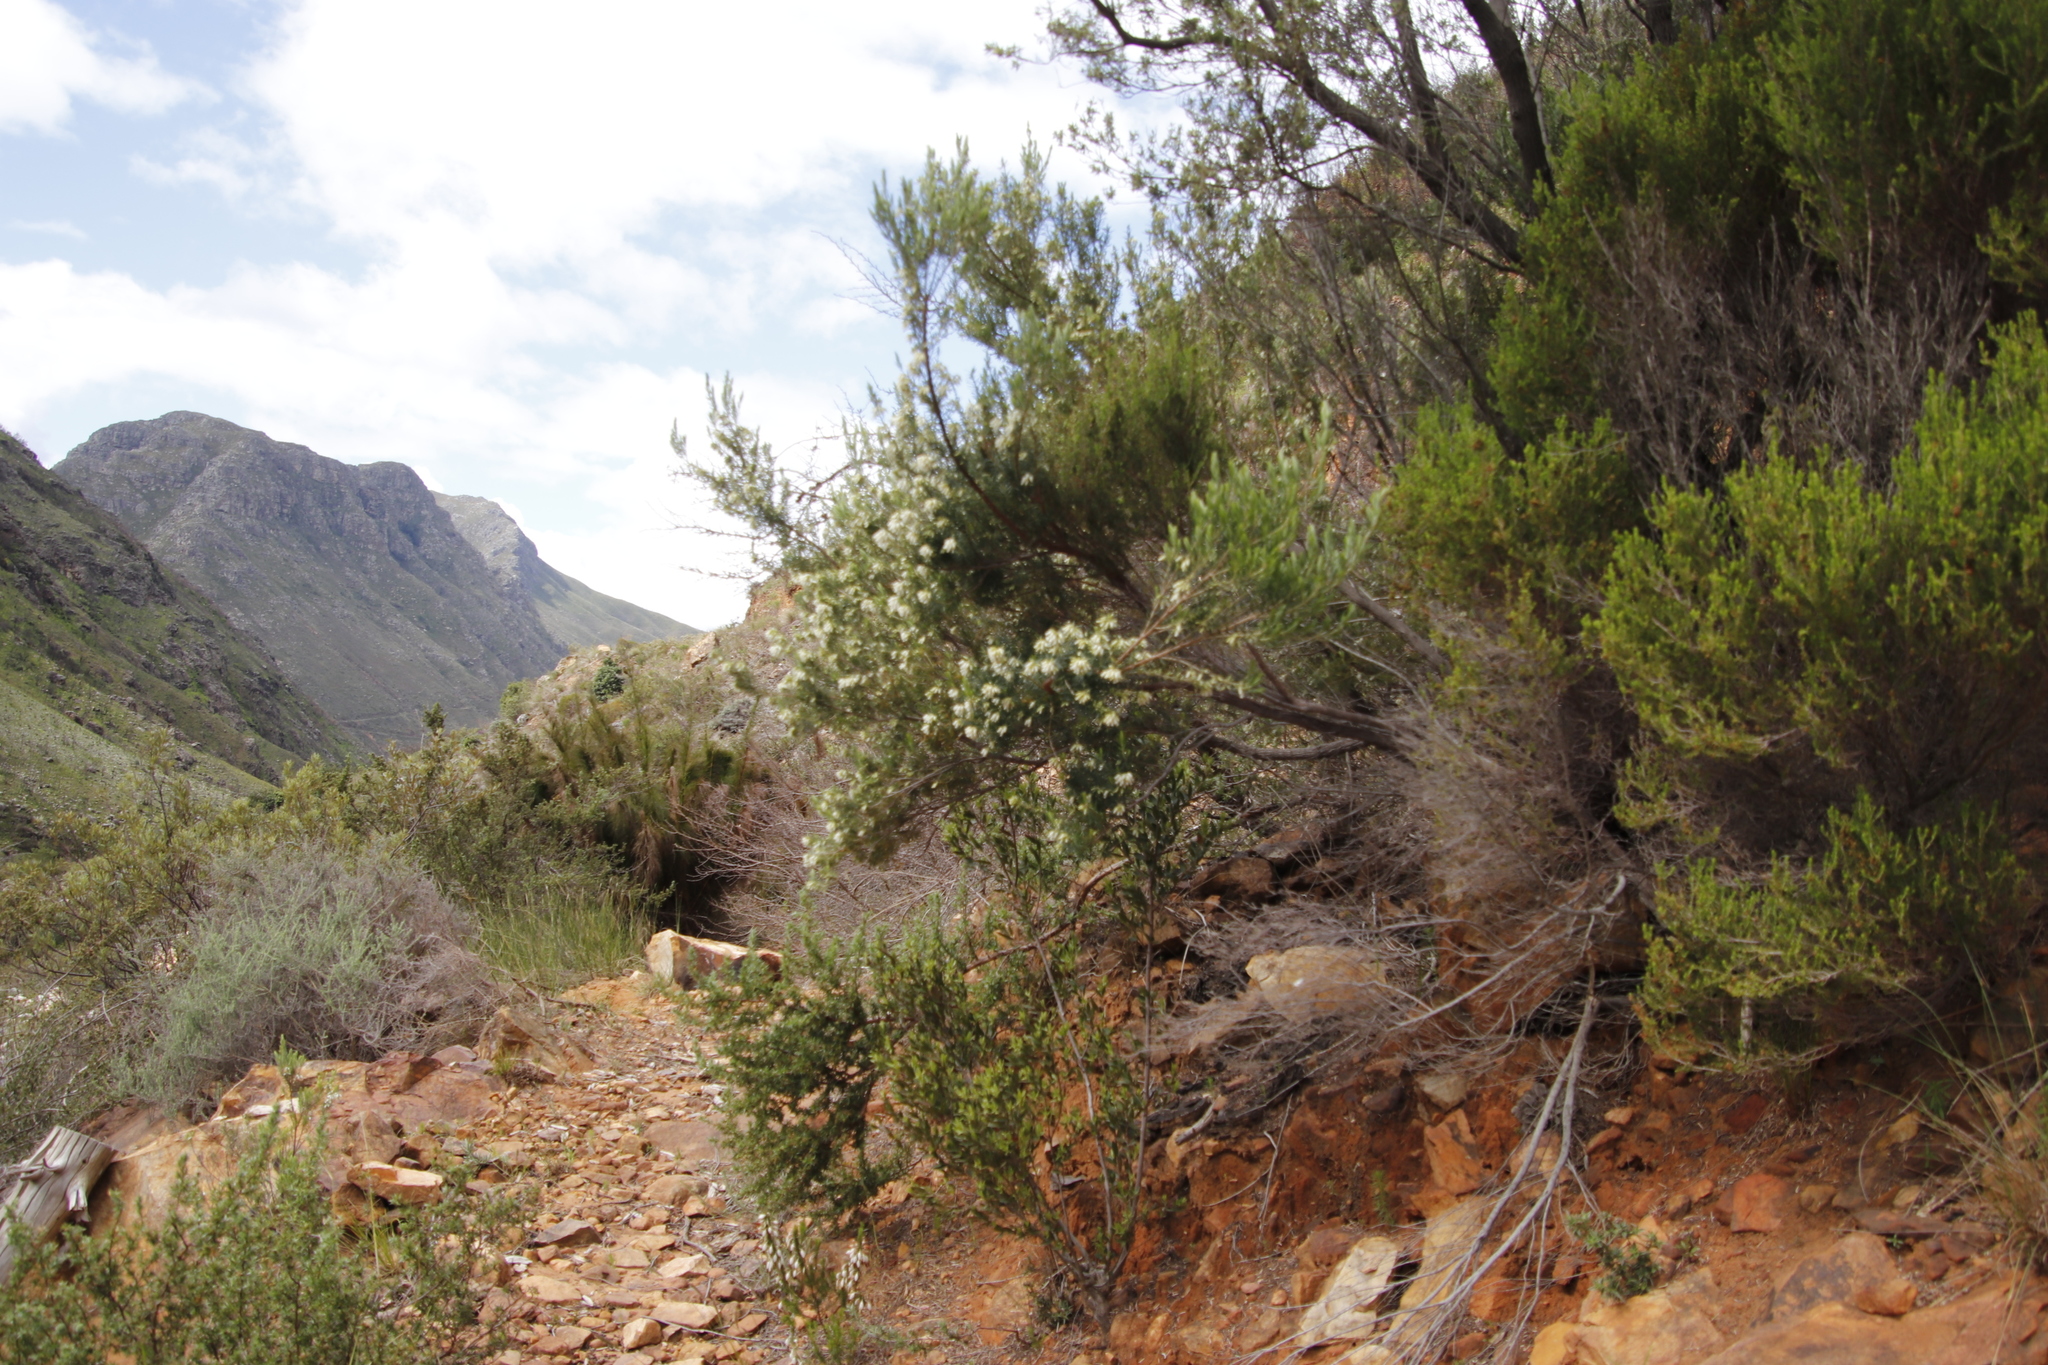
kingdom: Plantae
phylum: Tracheophyta
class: Magnoliopsida
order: Ericales
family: Ericaceae
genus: Erica
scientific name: Erica caffra
